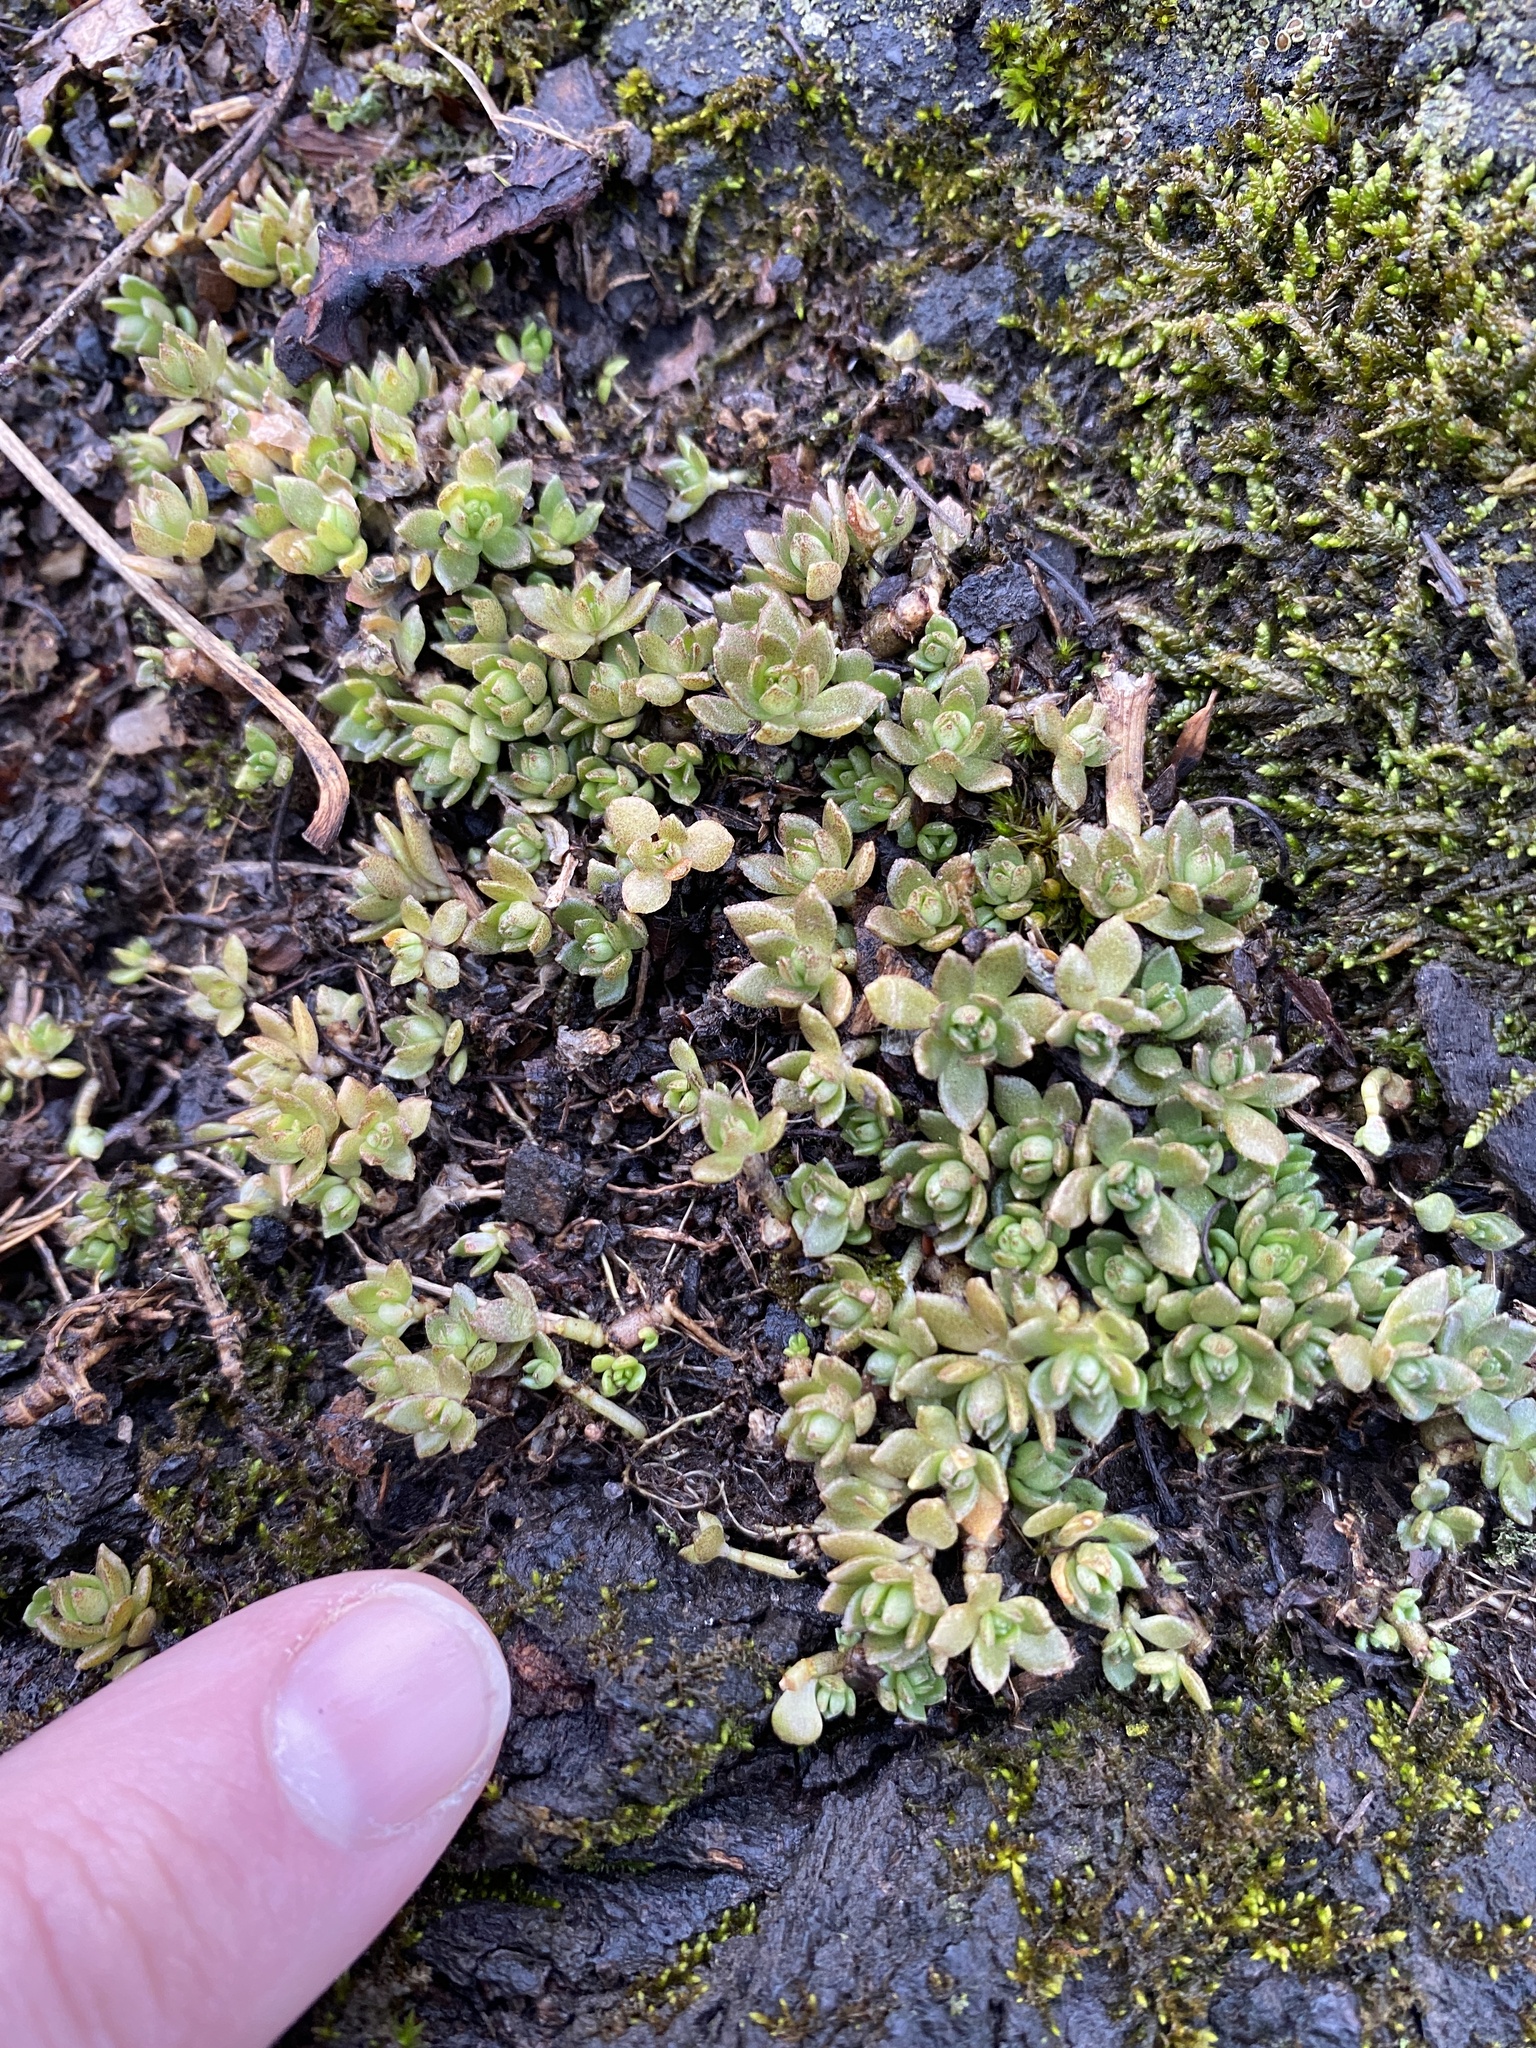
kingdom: Plantae
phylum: Tracheophyta
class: Magnoliopsida
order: Saxifragales
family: Crassulaceae
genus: Sedum
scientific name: Sedum sarmentosum
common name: Stringy stonecrop
